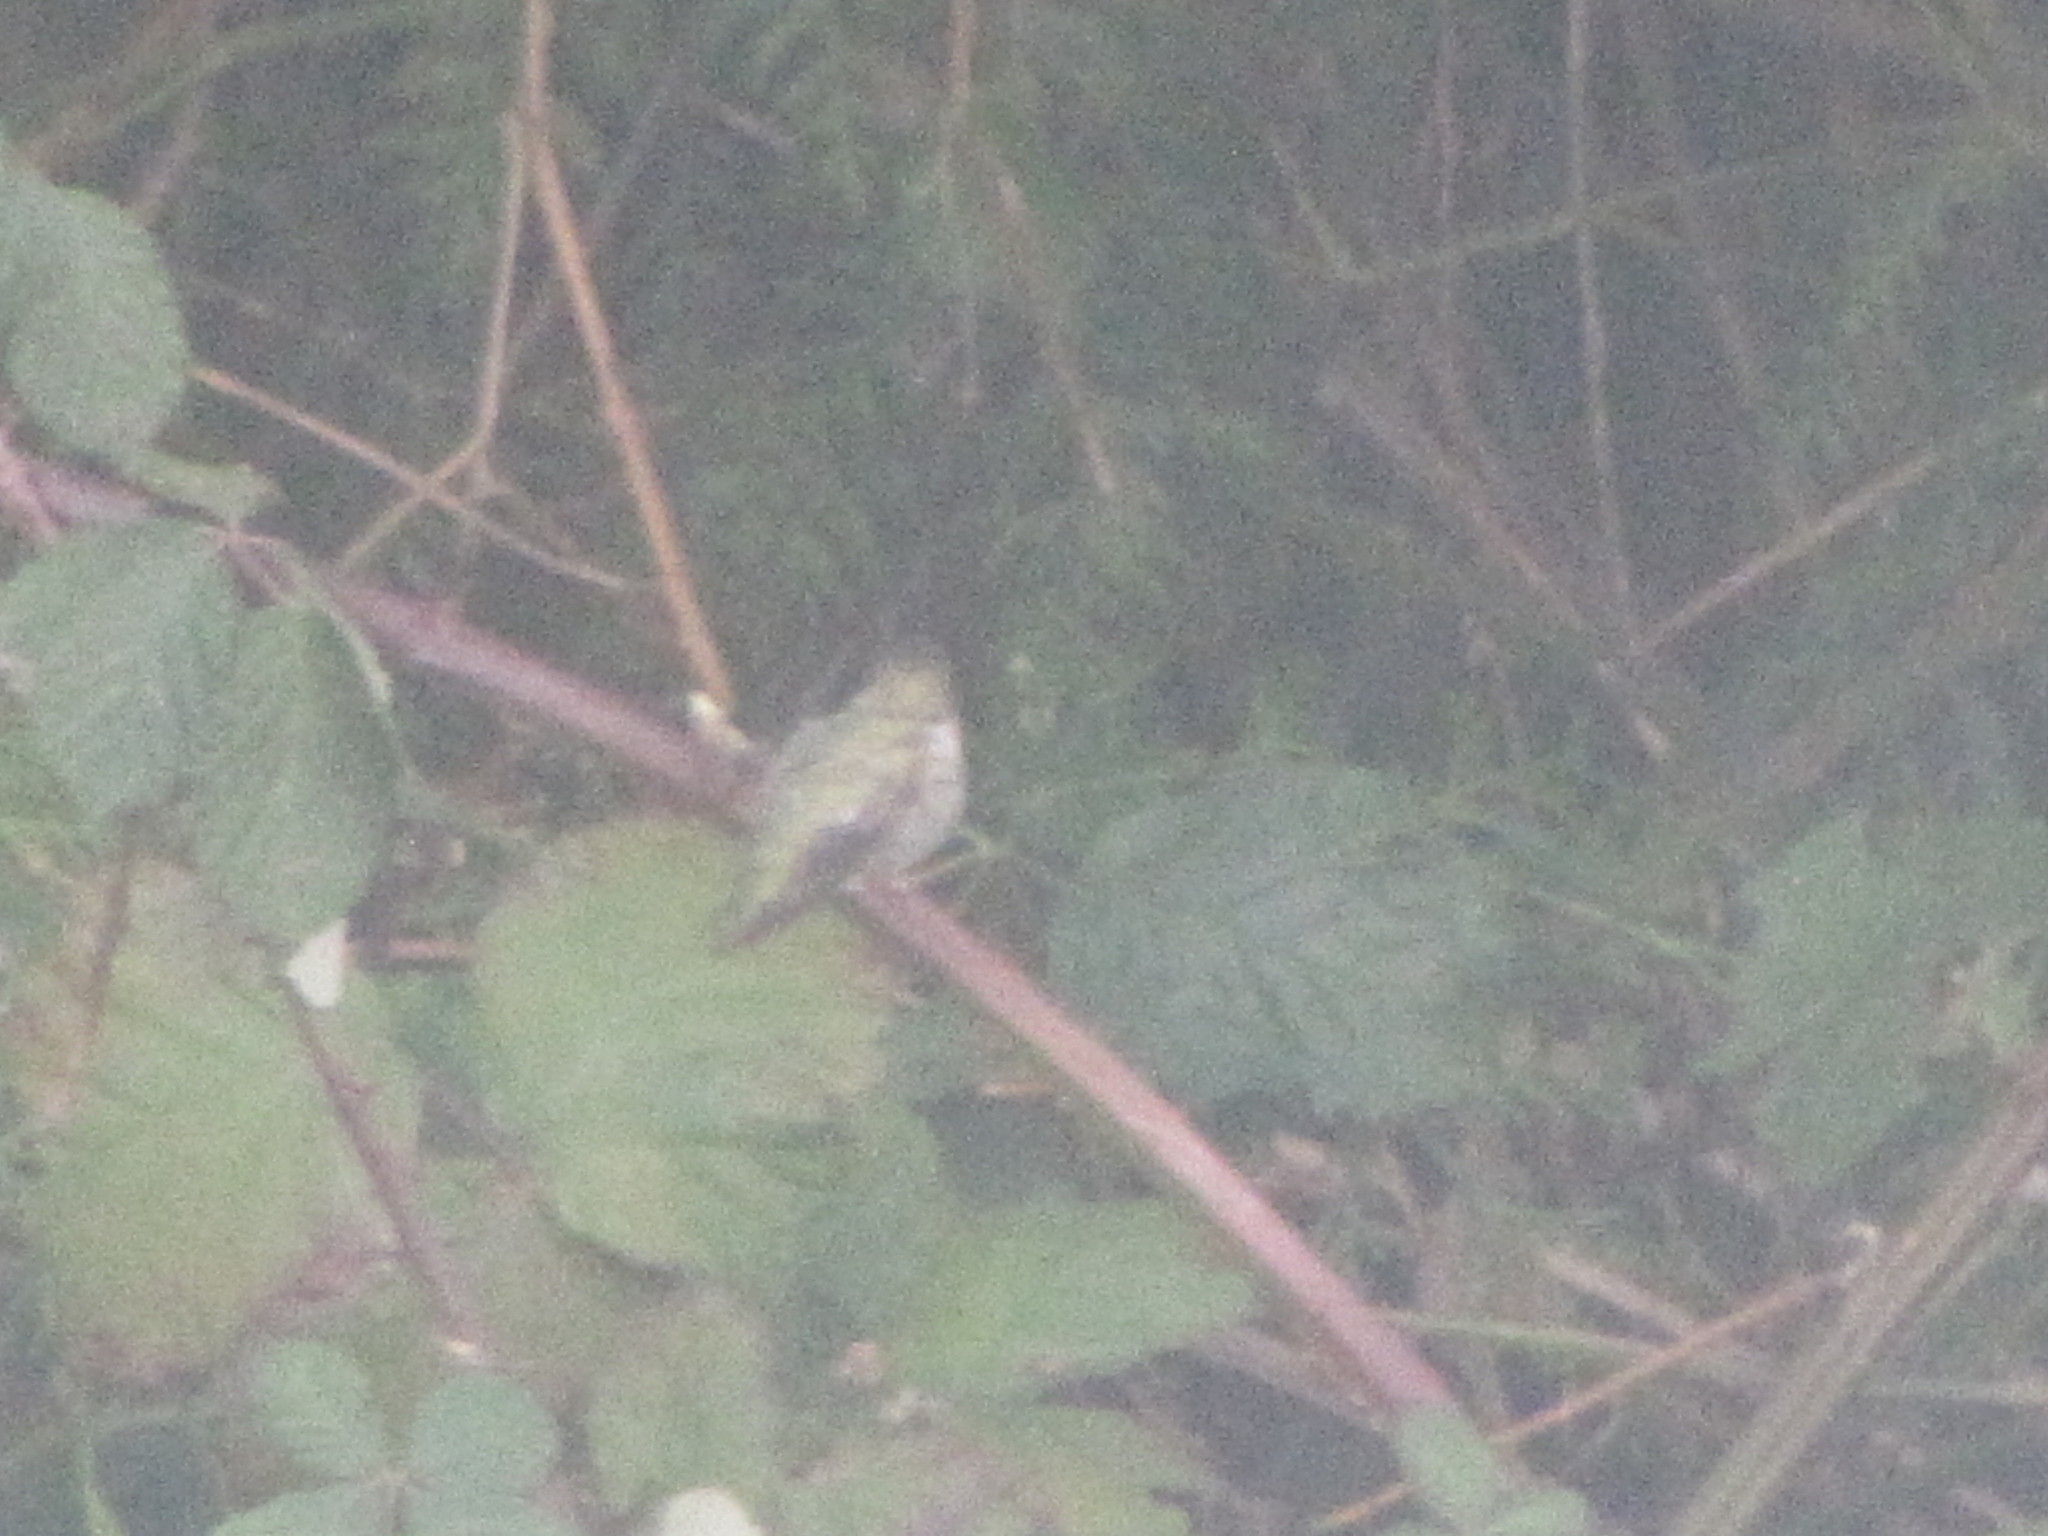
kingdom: Animalia
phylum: Chordata
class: Aves
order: Apodiformes
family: Trochilidae
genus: Calypte
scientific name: Calypte anna
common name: Anna's hummingbird
